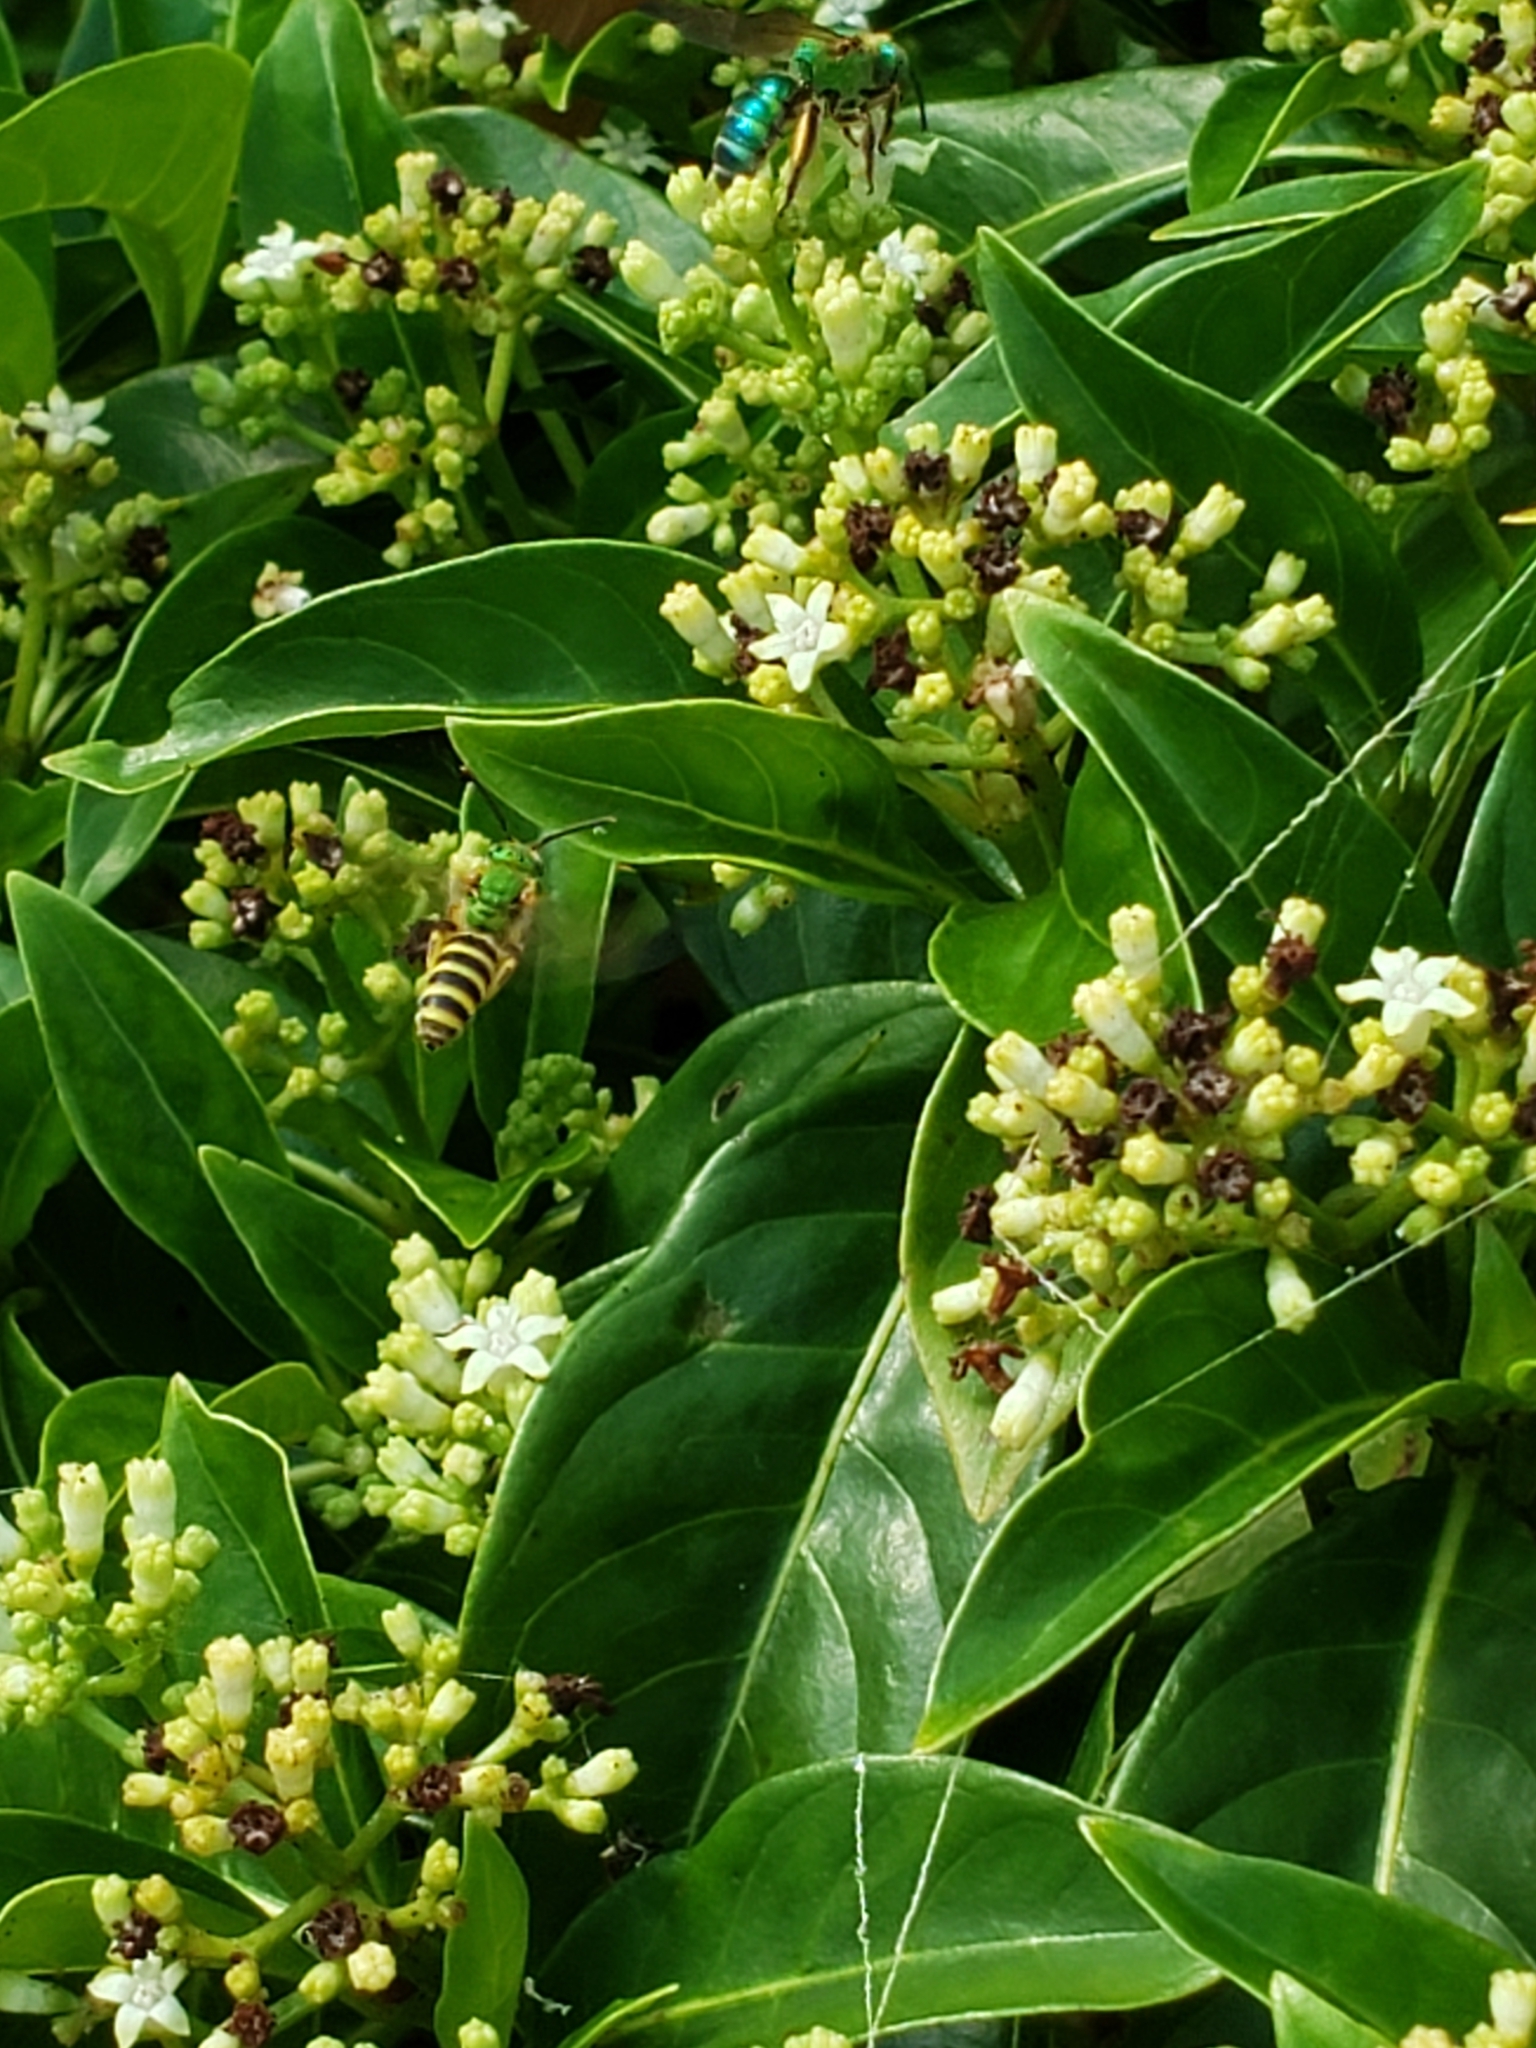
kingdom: Animalia
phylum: Arthropoda
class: Insecta
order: Hymenoptera
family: Halictidae
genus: Agapostemon
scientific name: Agapostemon splendens
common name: Brown-winged striped sweat bee
